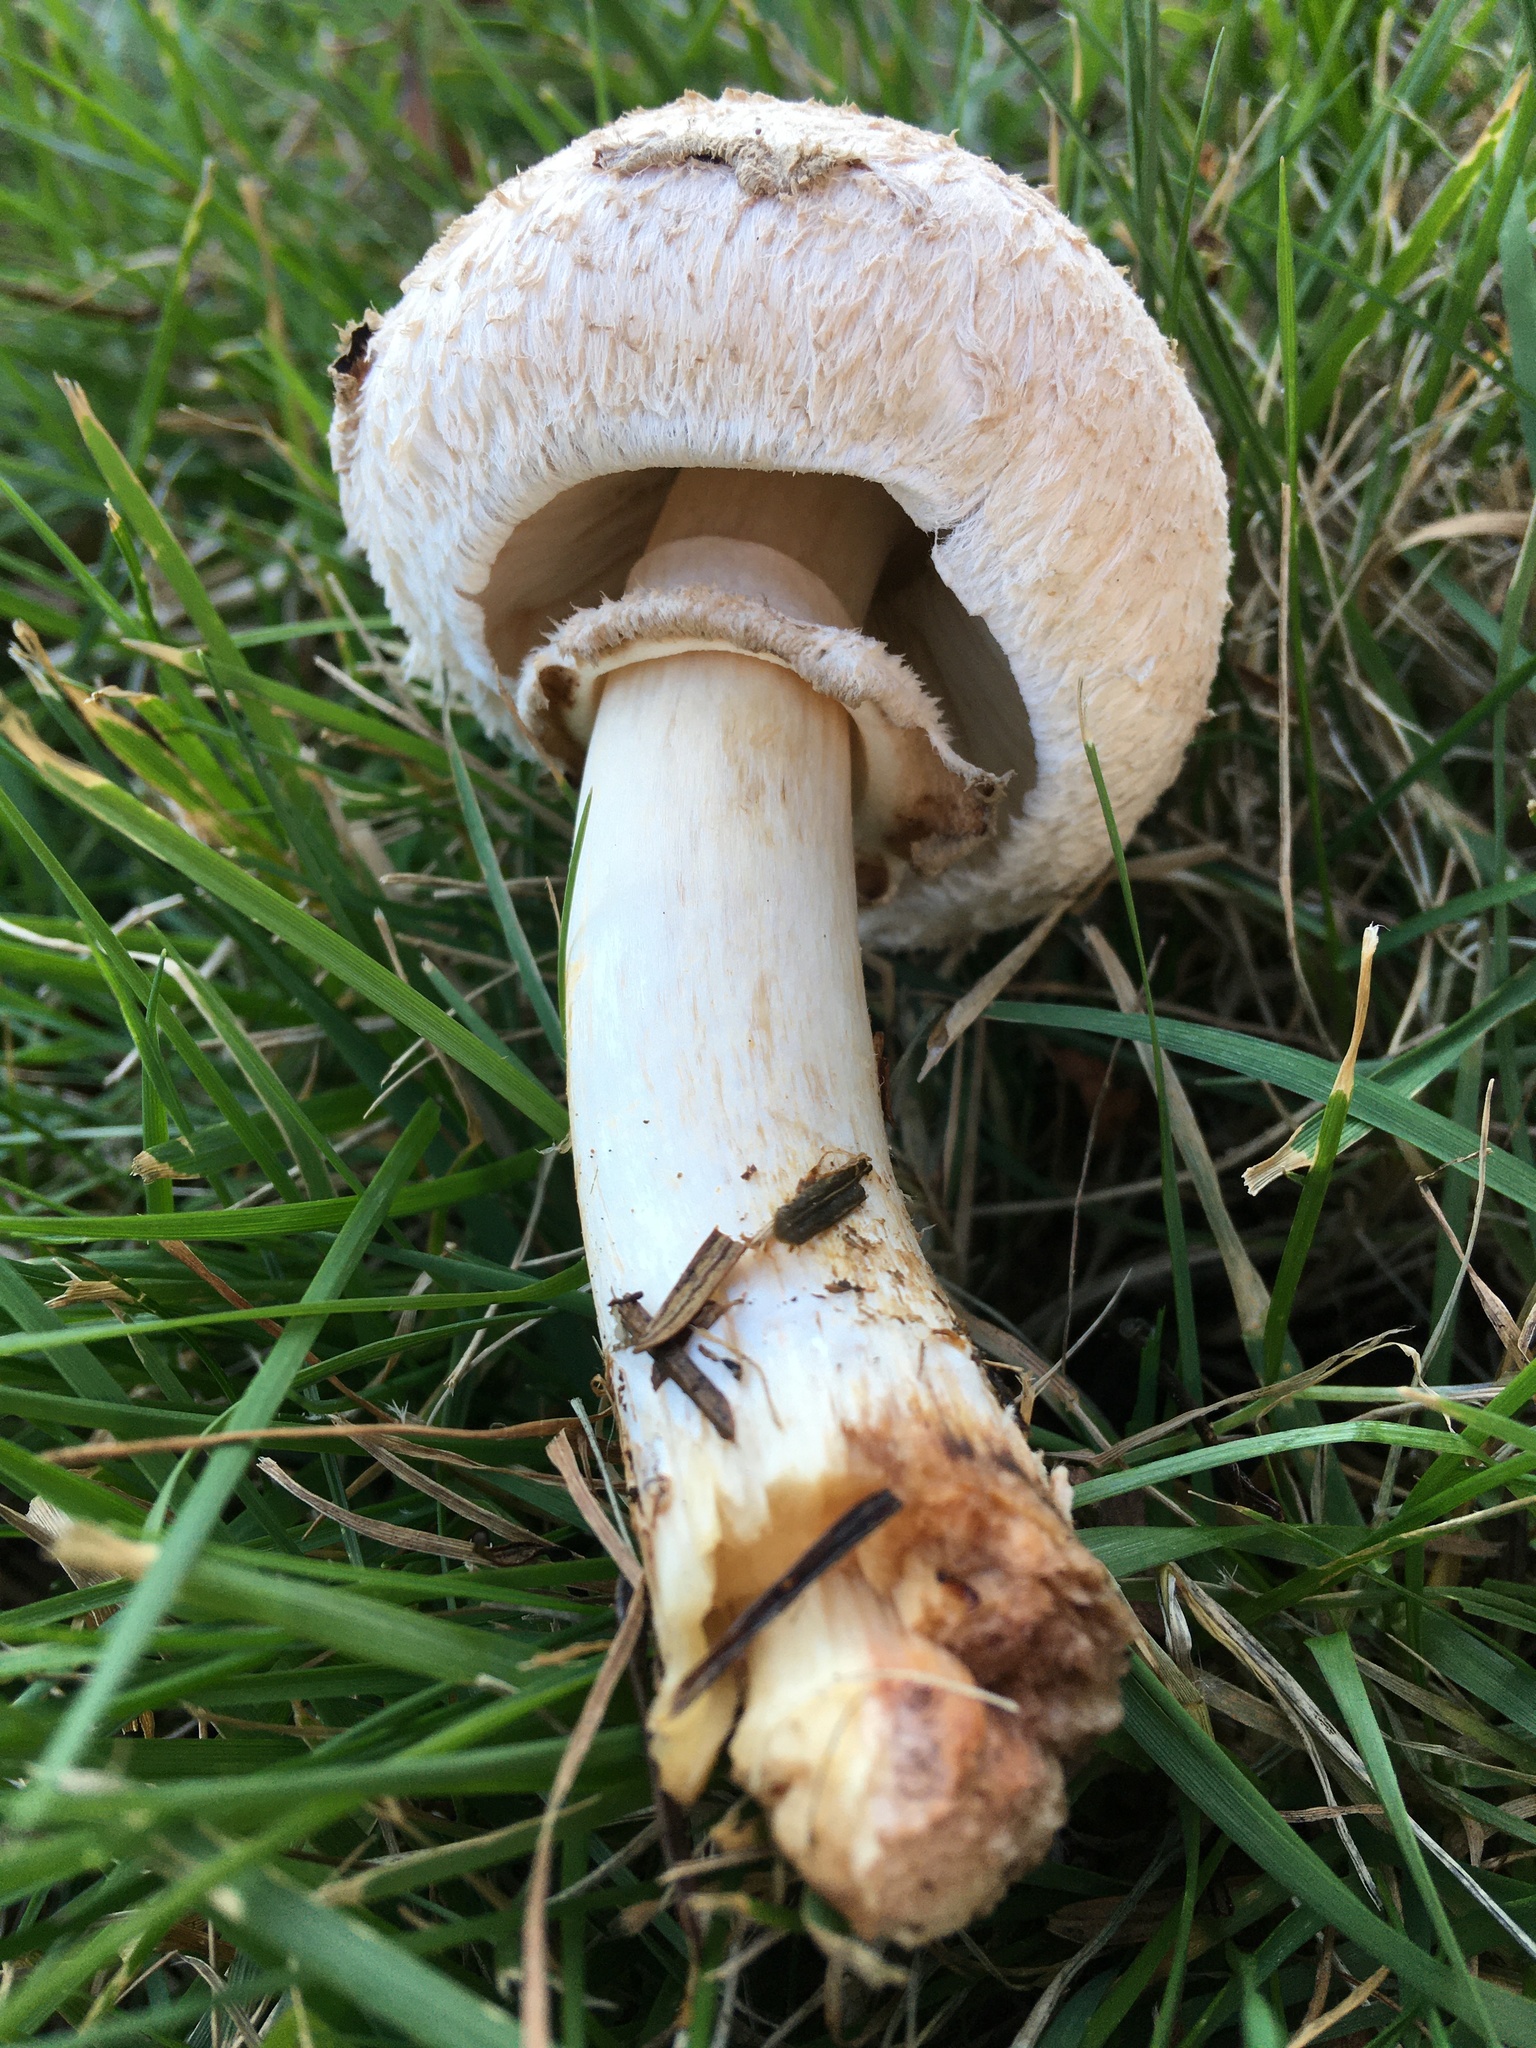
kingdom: Fungi
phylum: Basidiomycota
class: Agaricomycetes
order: Agaricales
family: Agaricaceae
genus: Chlorophyllum
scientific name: Chlorophyllum brunneum
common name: Brown parasol
